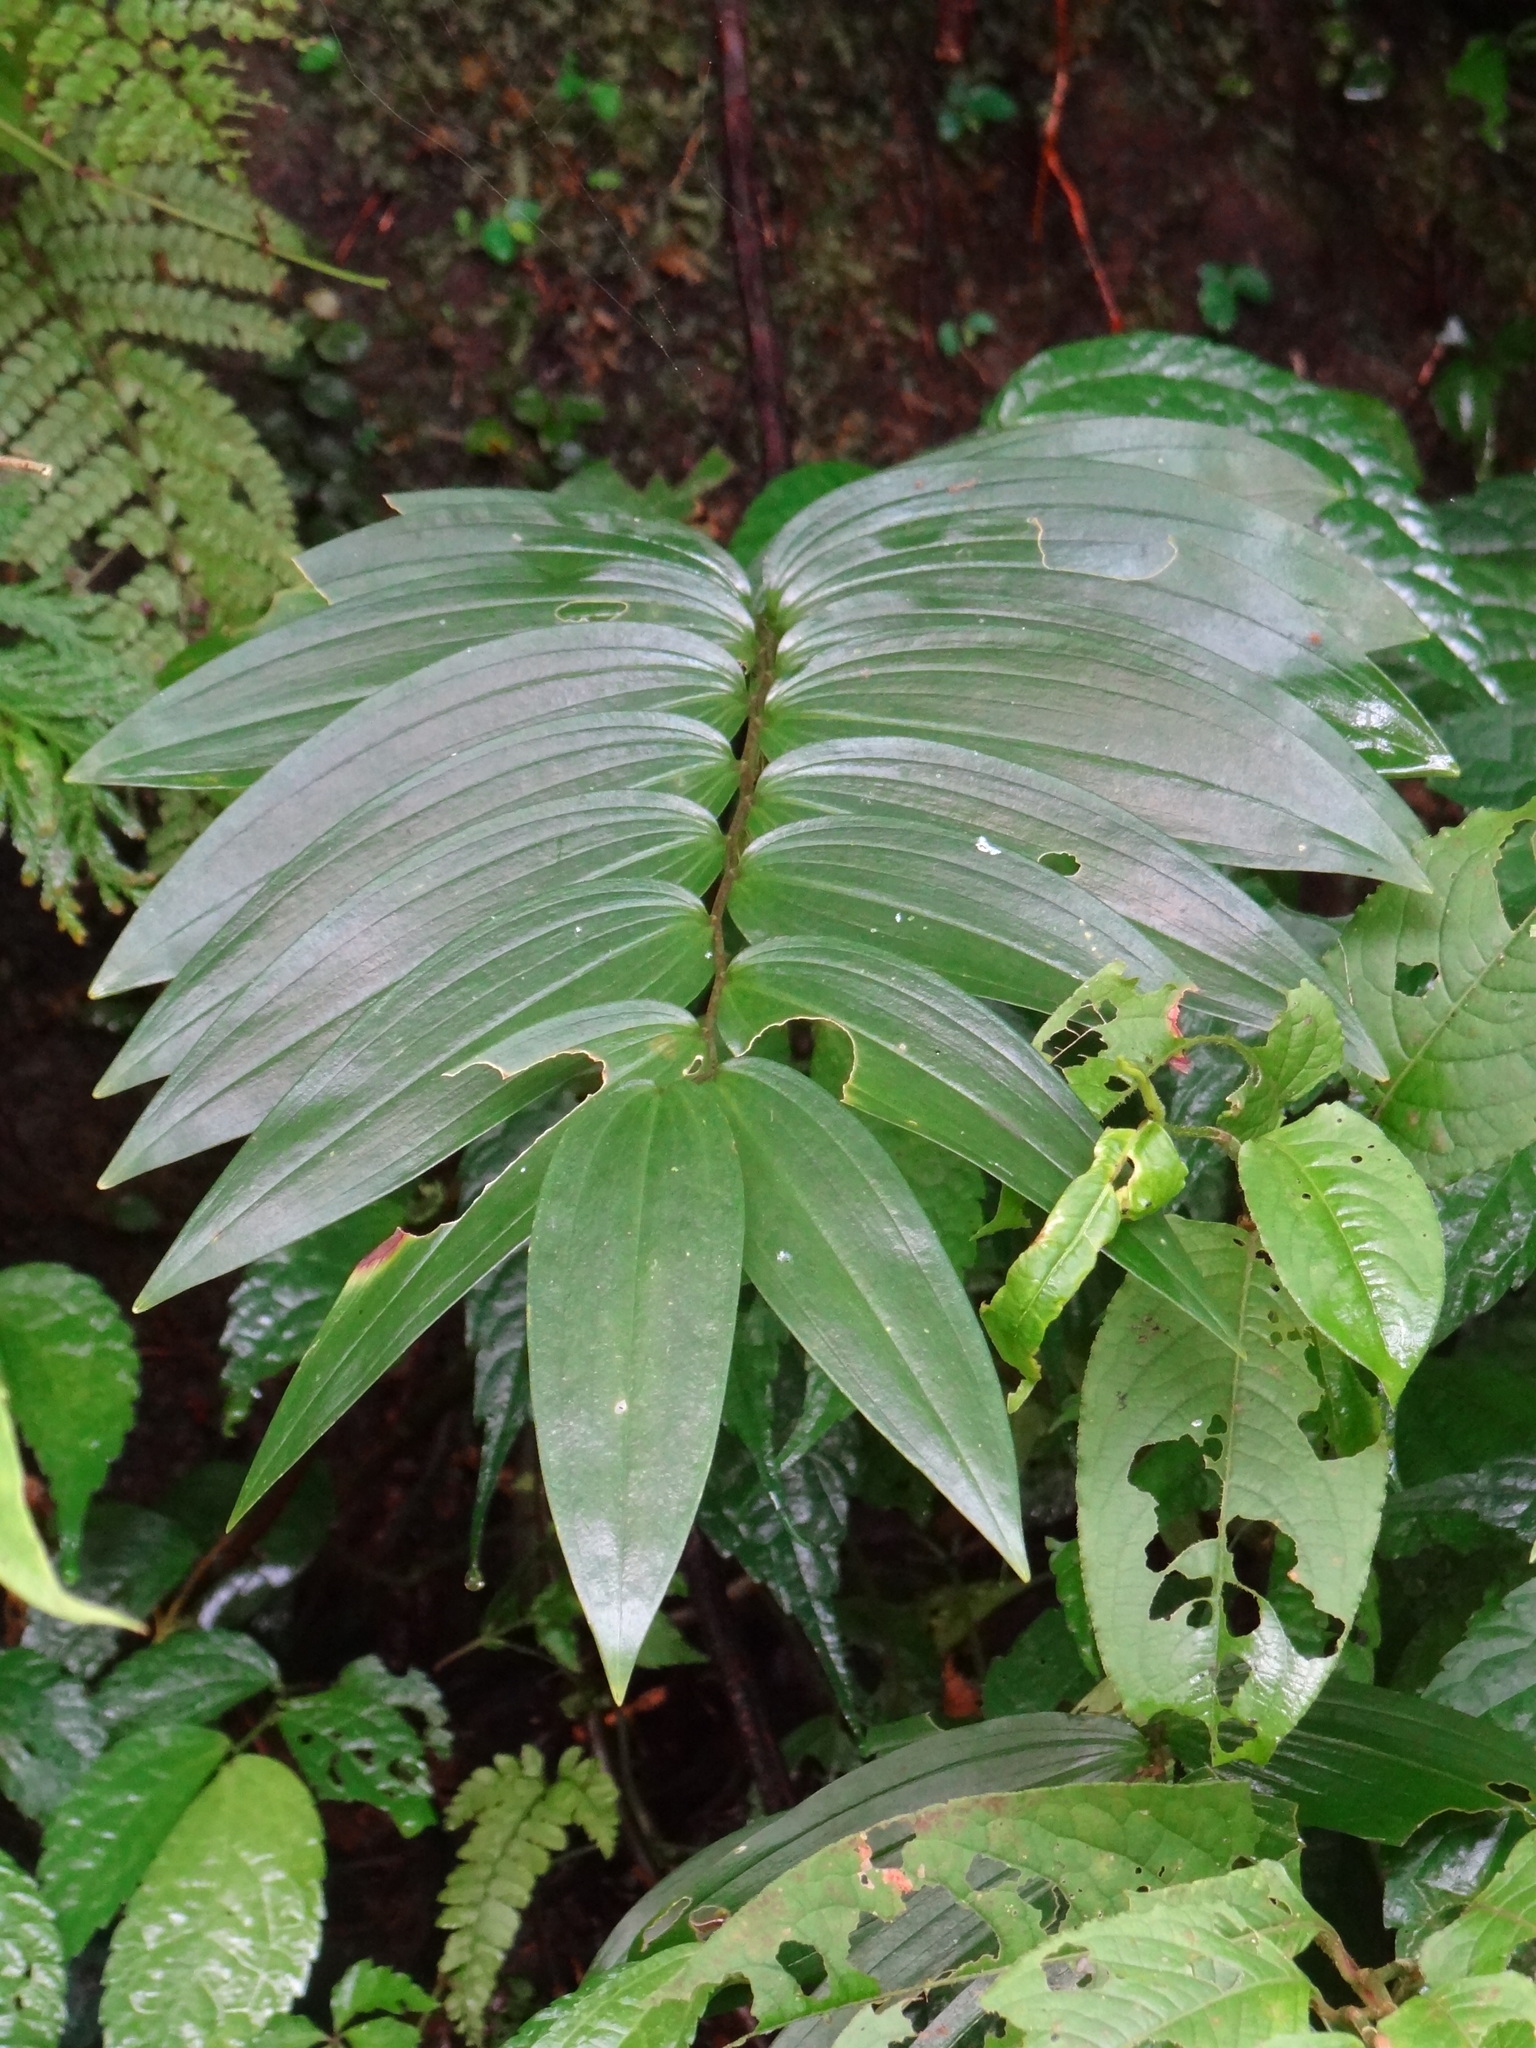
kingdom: Plantae
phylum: Tracheophyta
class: Liliopsida
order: Asparagales
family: Asparagaceae
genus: Polygonatum
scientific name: Polygonatum arisanense
